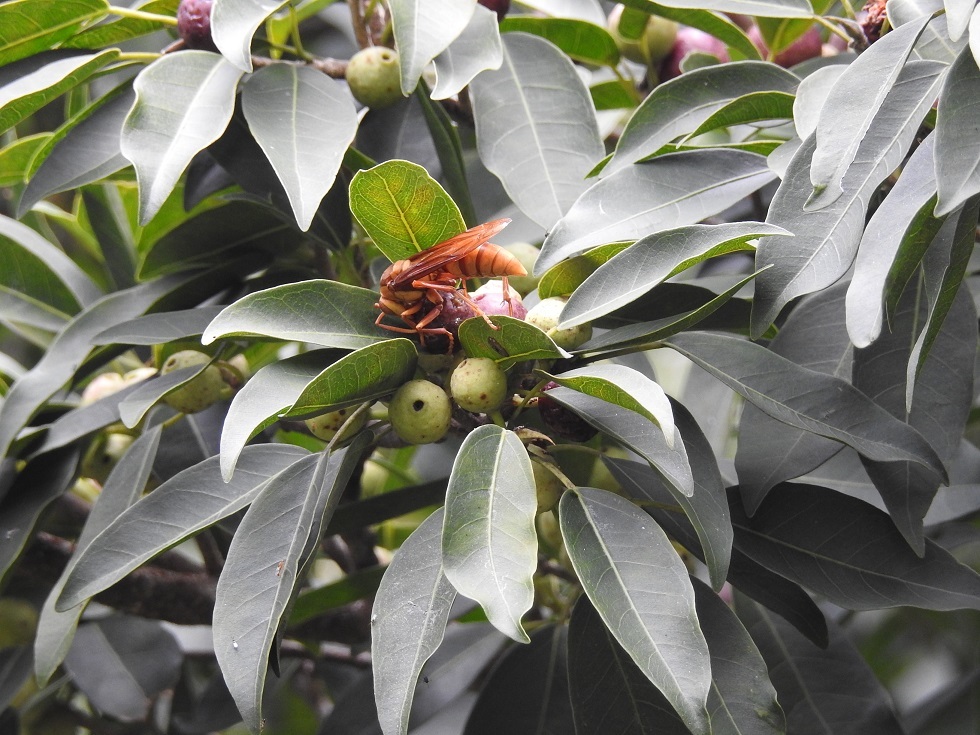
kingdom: Animalia
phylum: Arthropoda
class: Insecta
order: Hymenoptera
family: Eumenidae
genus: Polistes
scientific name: Polistes carnifex
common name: Paper wasp
